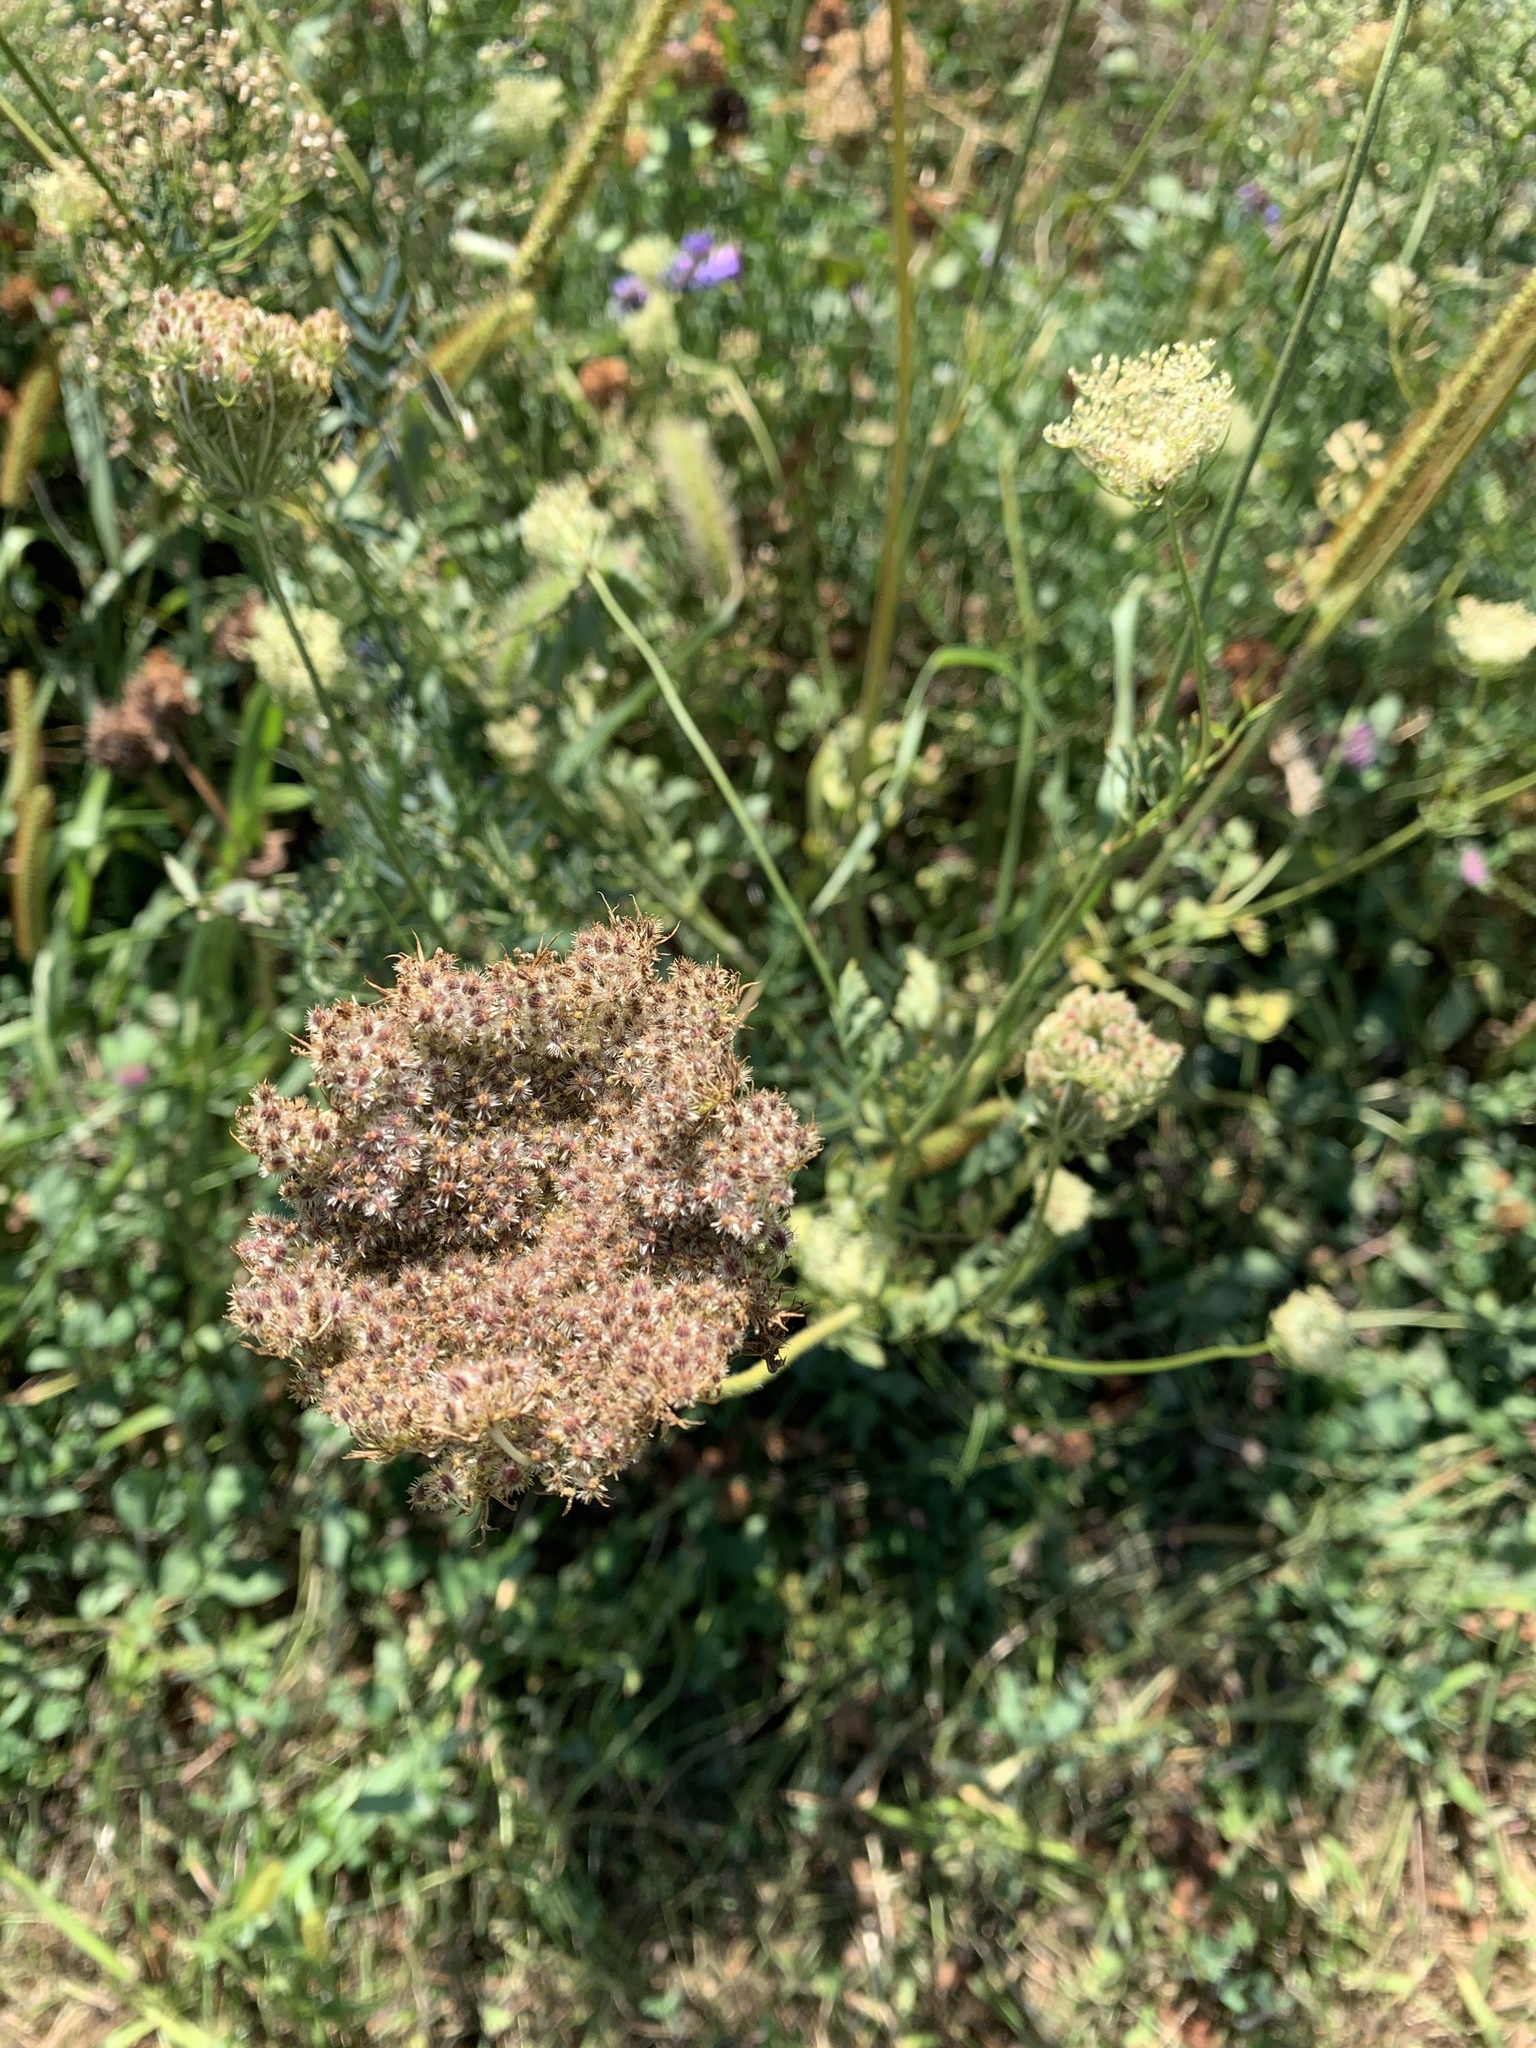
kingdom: Plantae
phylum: Tracheophyta
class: Magnoliopsida
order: Apiales
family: Apiaceae
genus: Daucus
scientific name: Daucus carota
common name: Wild carrot
